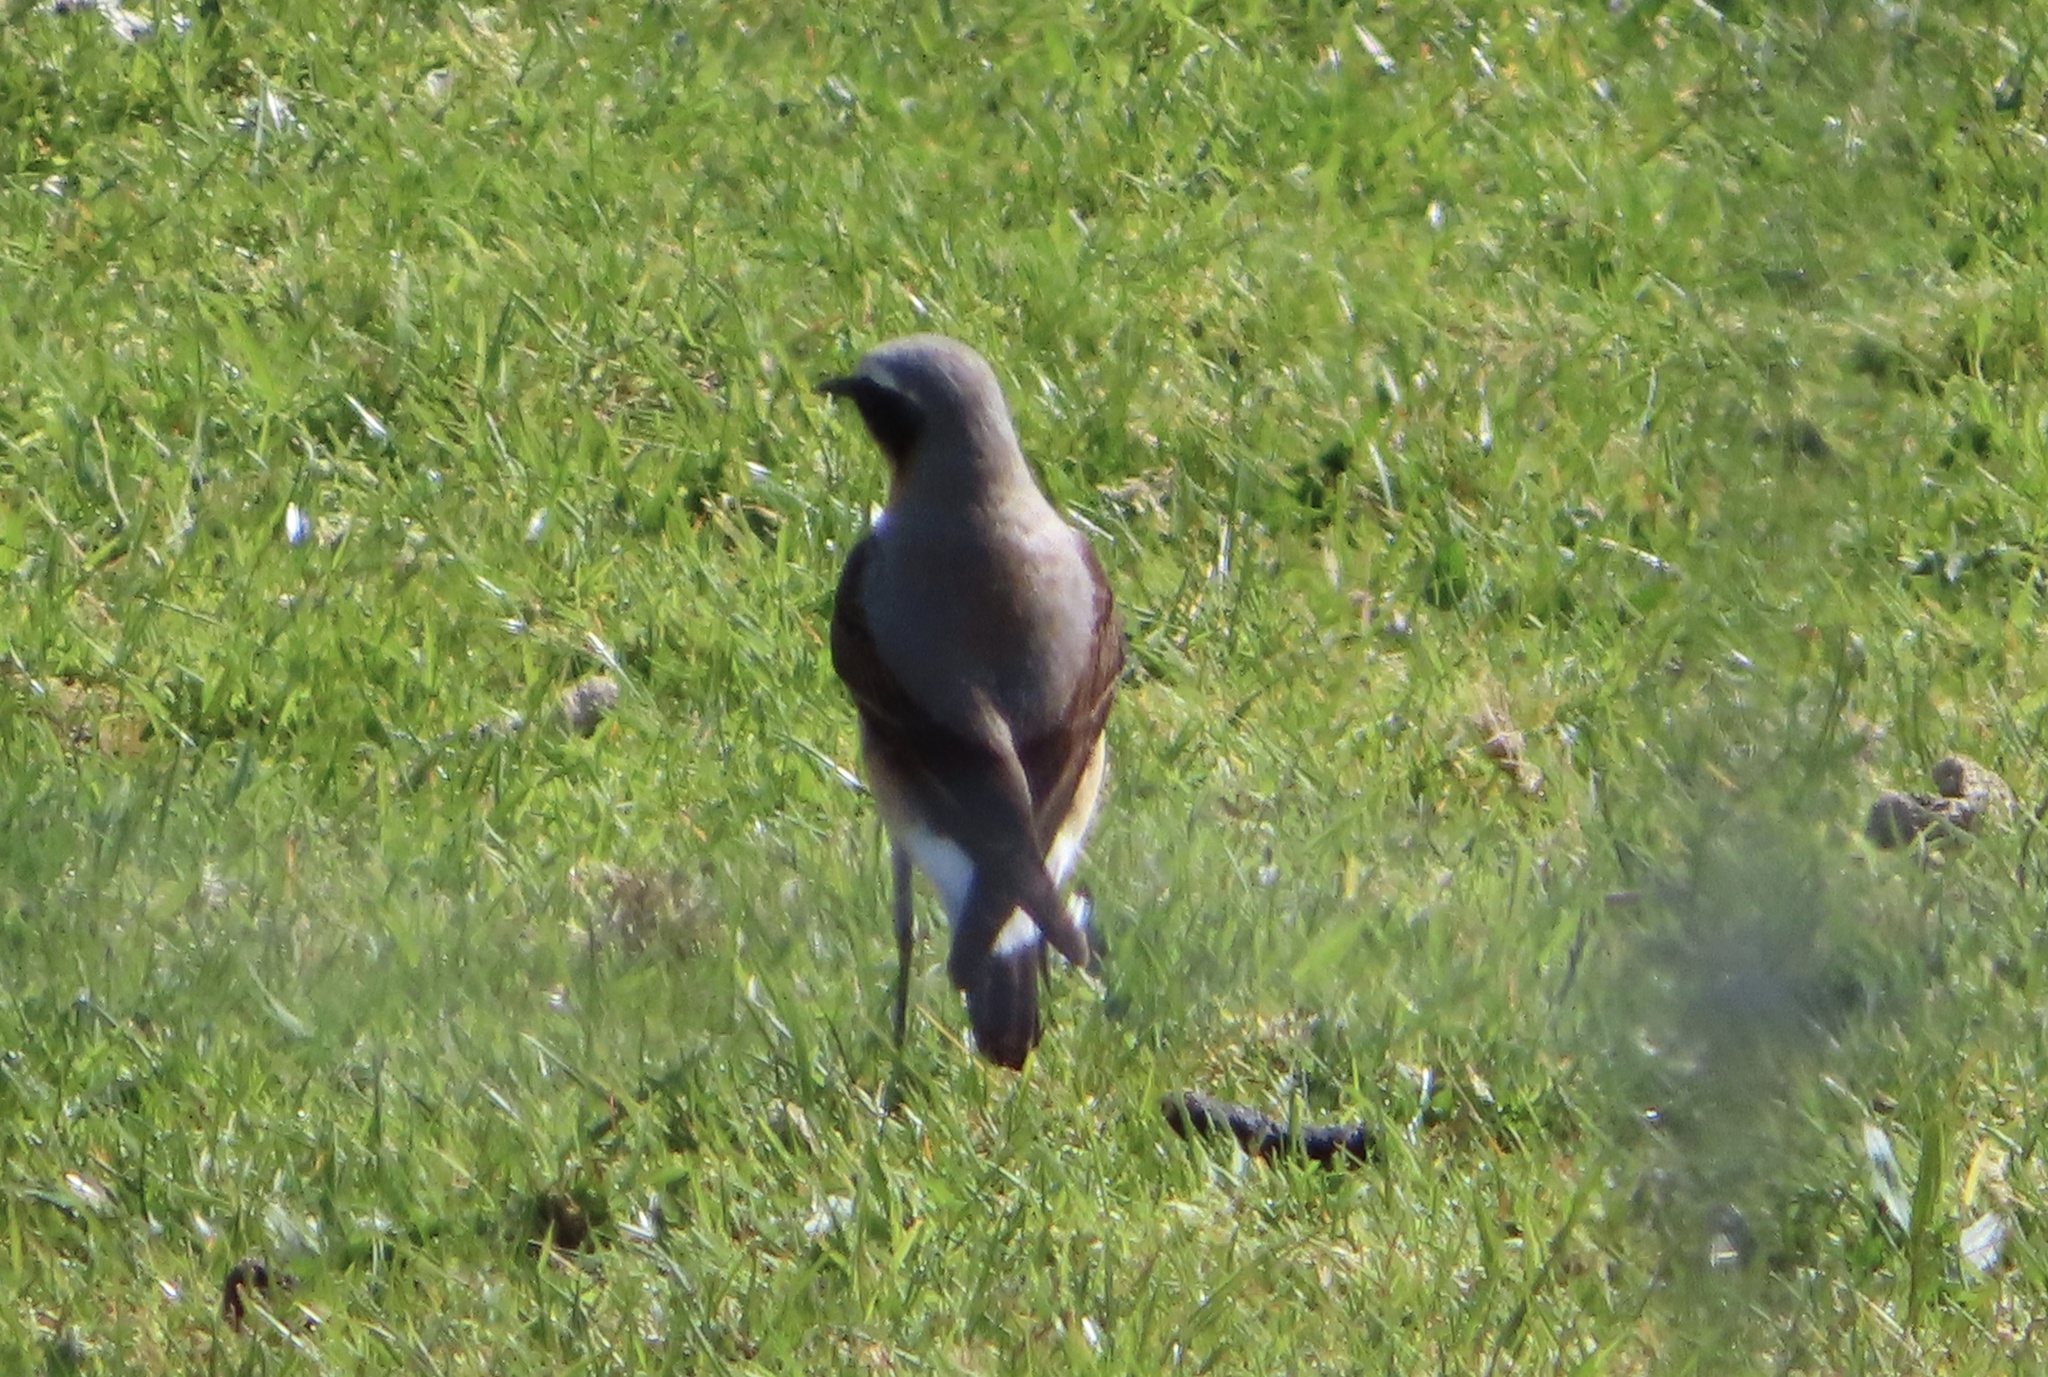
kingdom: Animalia
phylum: Chordata
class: Aves
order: Passeriformes
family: Muscicapidae
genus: Oenanthe
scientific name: Oenanthe oenanthe
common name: Northern wheatear
